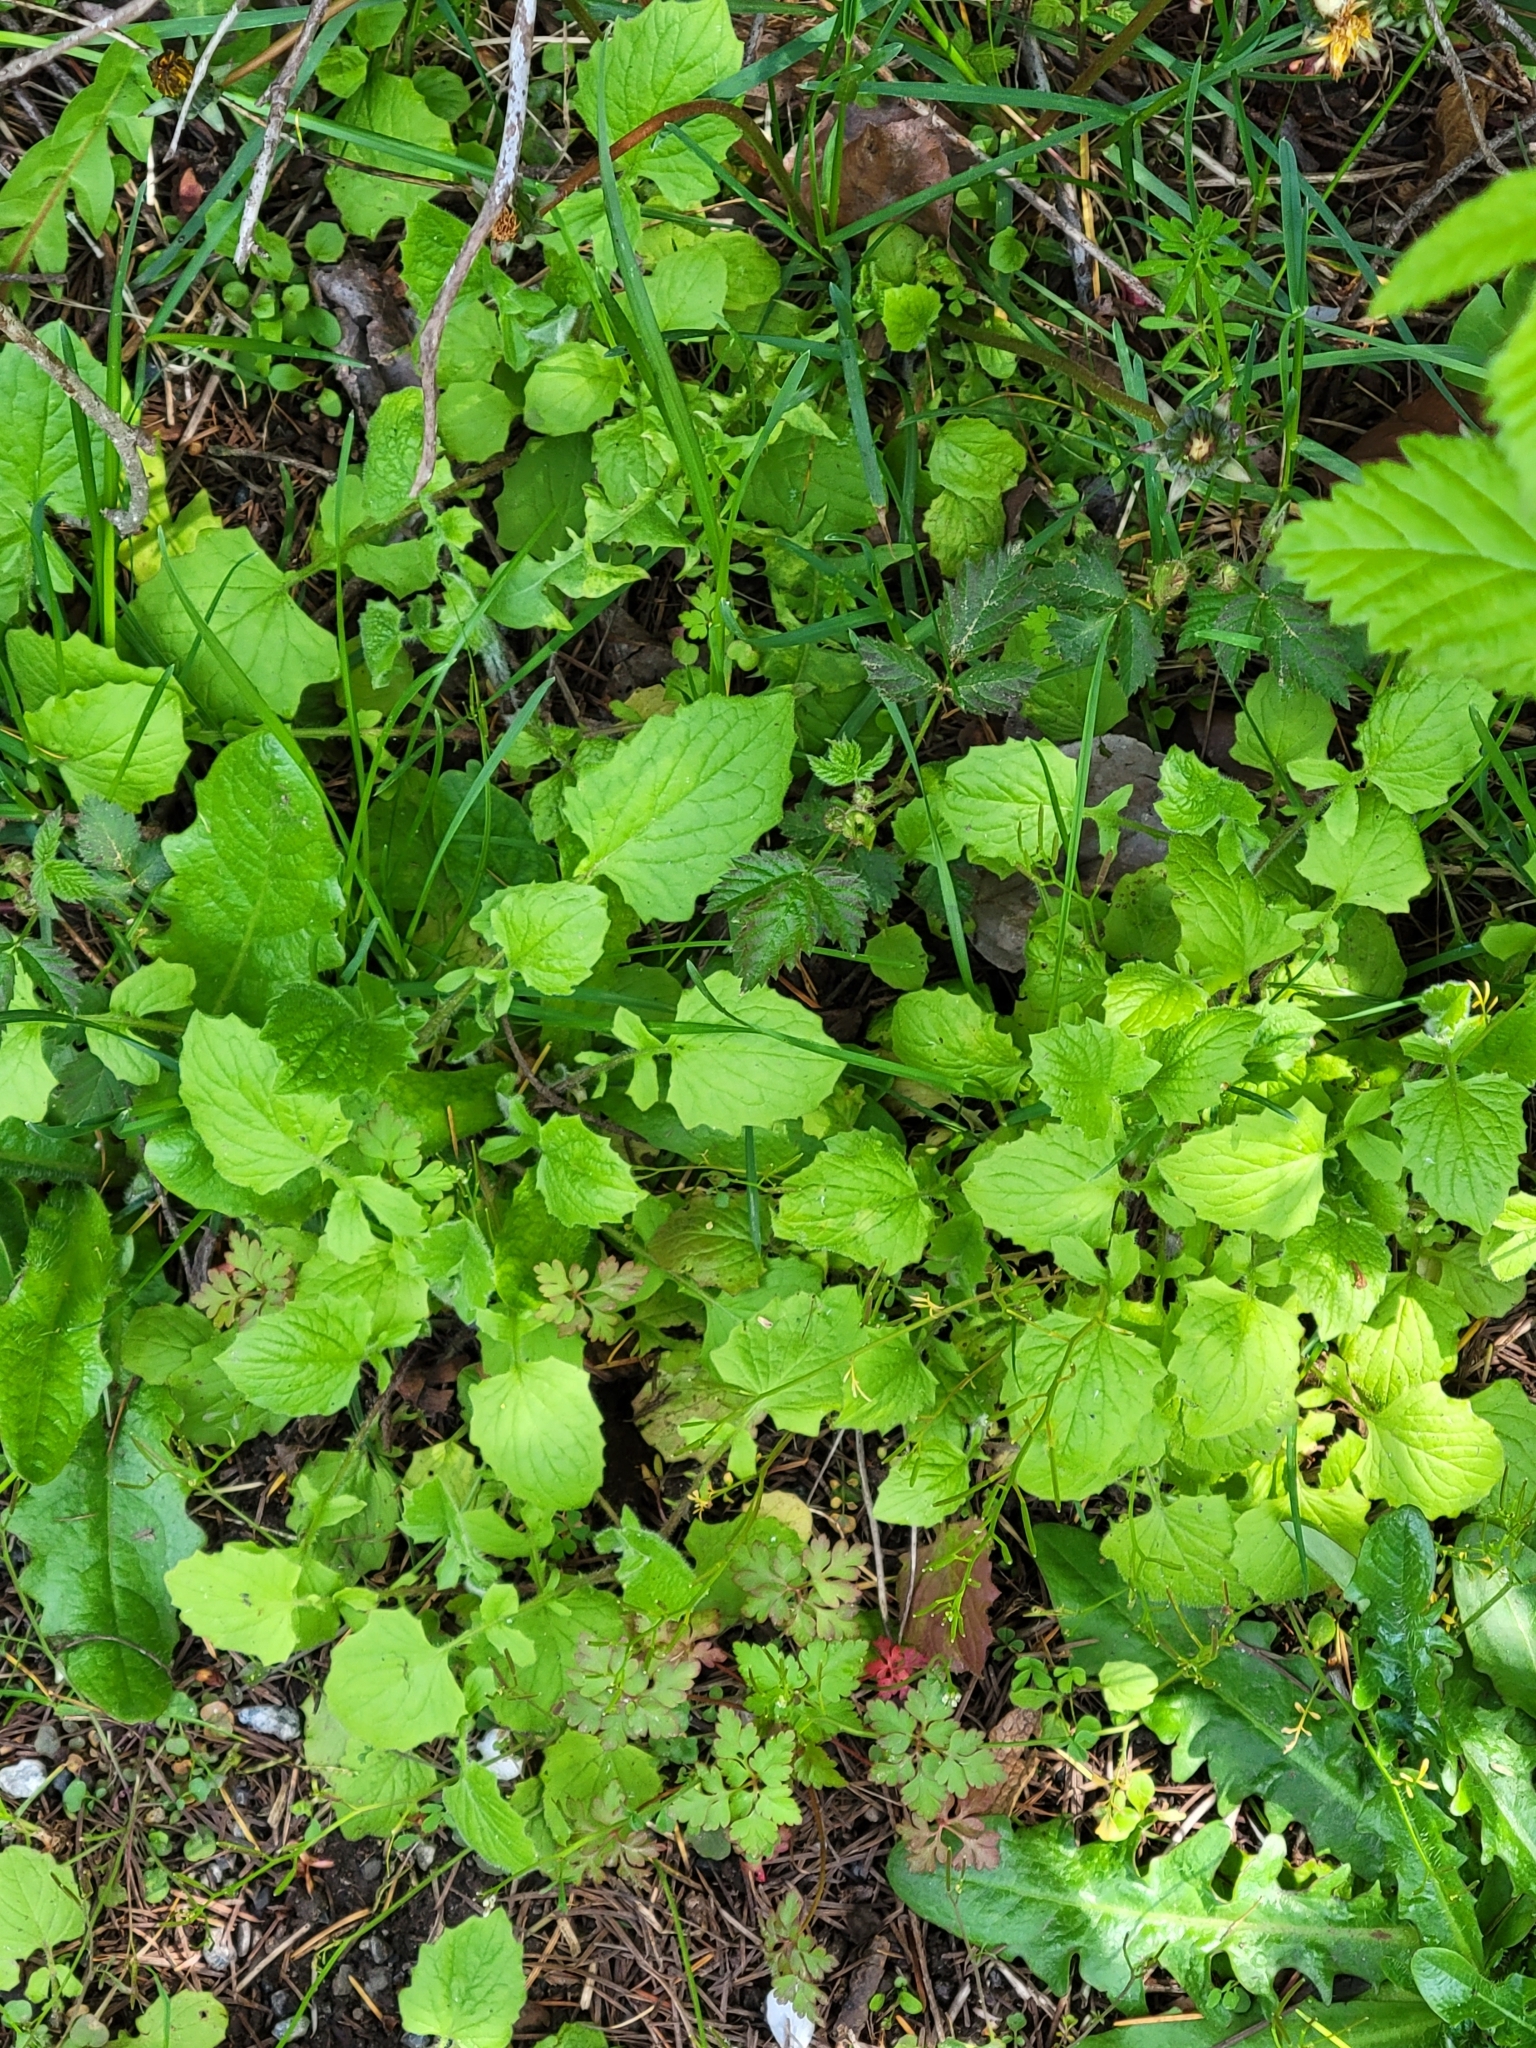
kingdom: Plantae
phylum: Tracheophyta
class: Magnoliopsida
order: Asterales
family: Asteraceae
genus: Lapsana
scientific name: Lapsana communis
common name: Nipplewort
